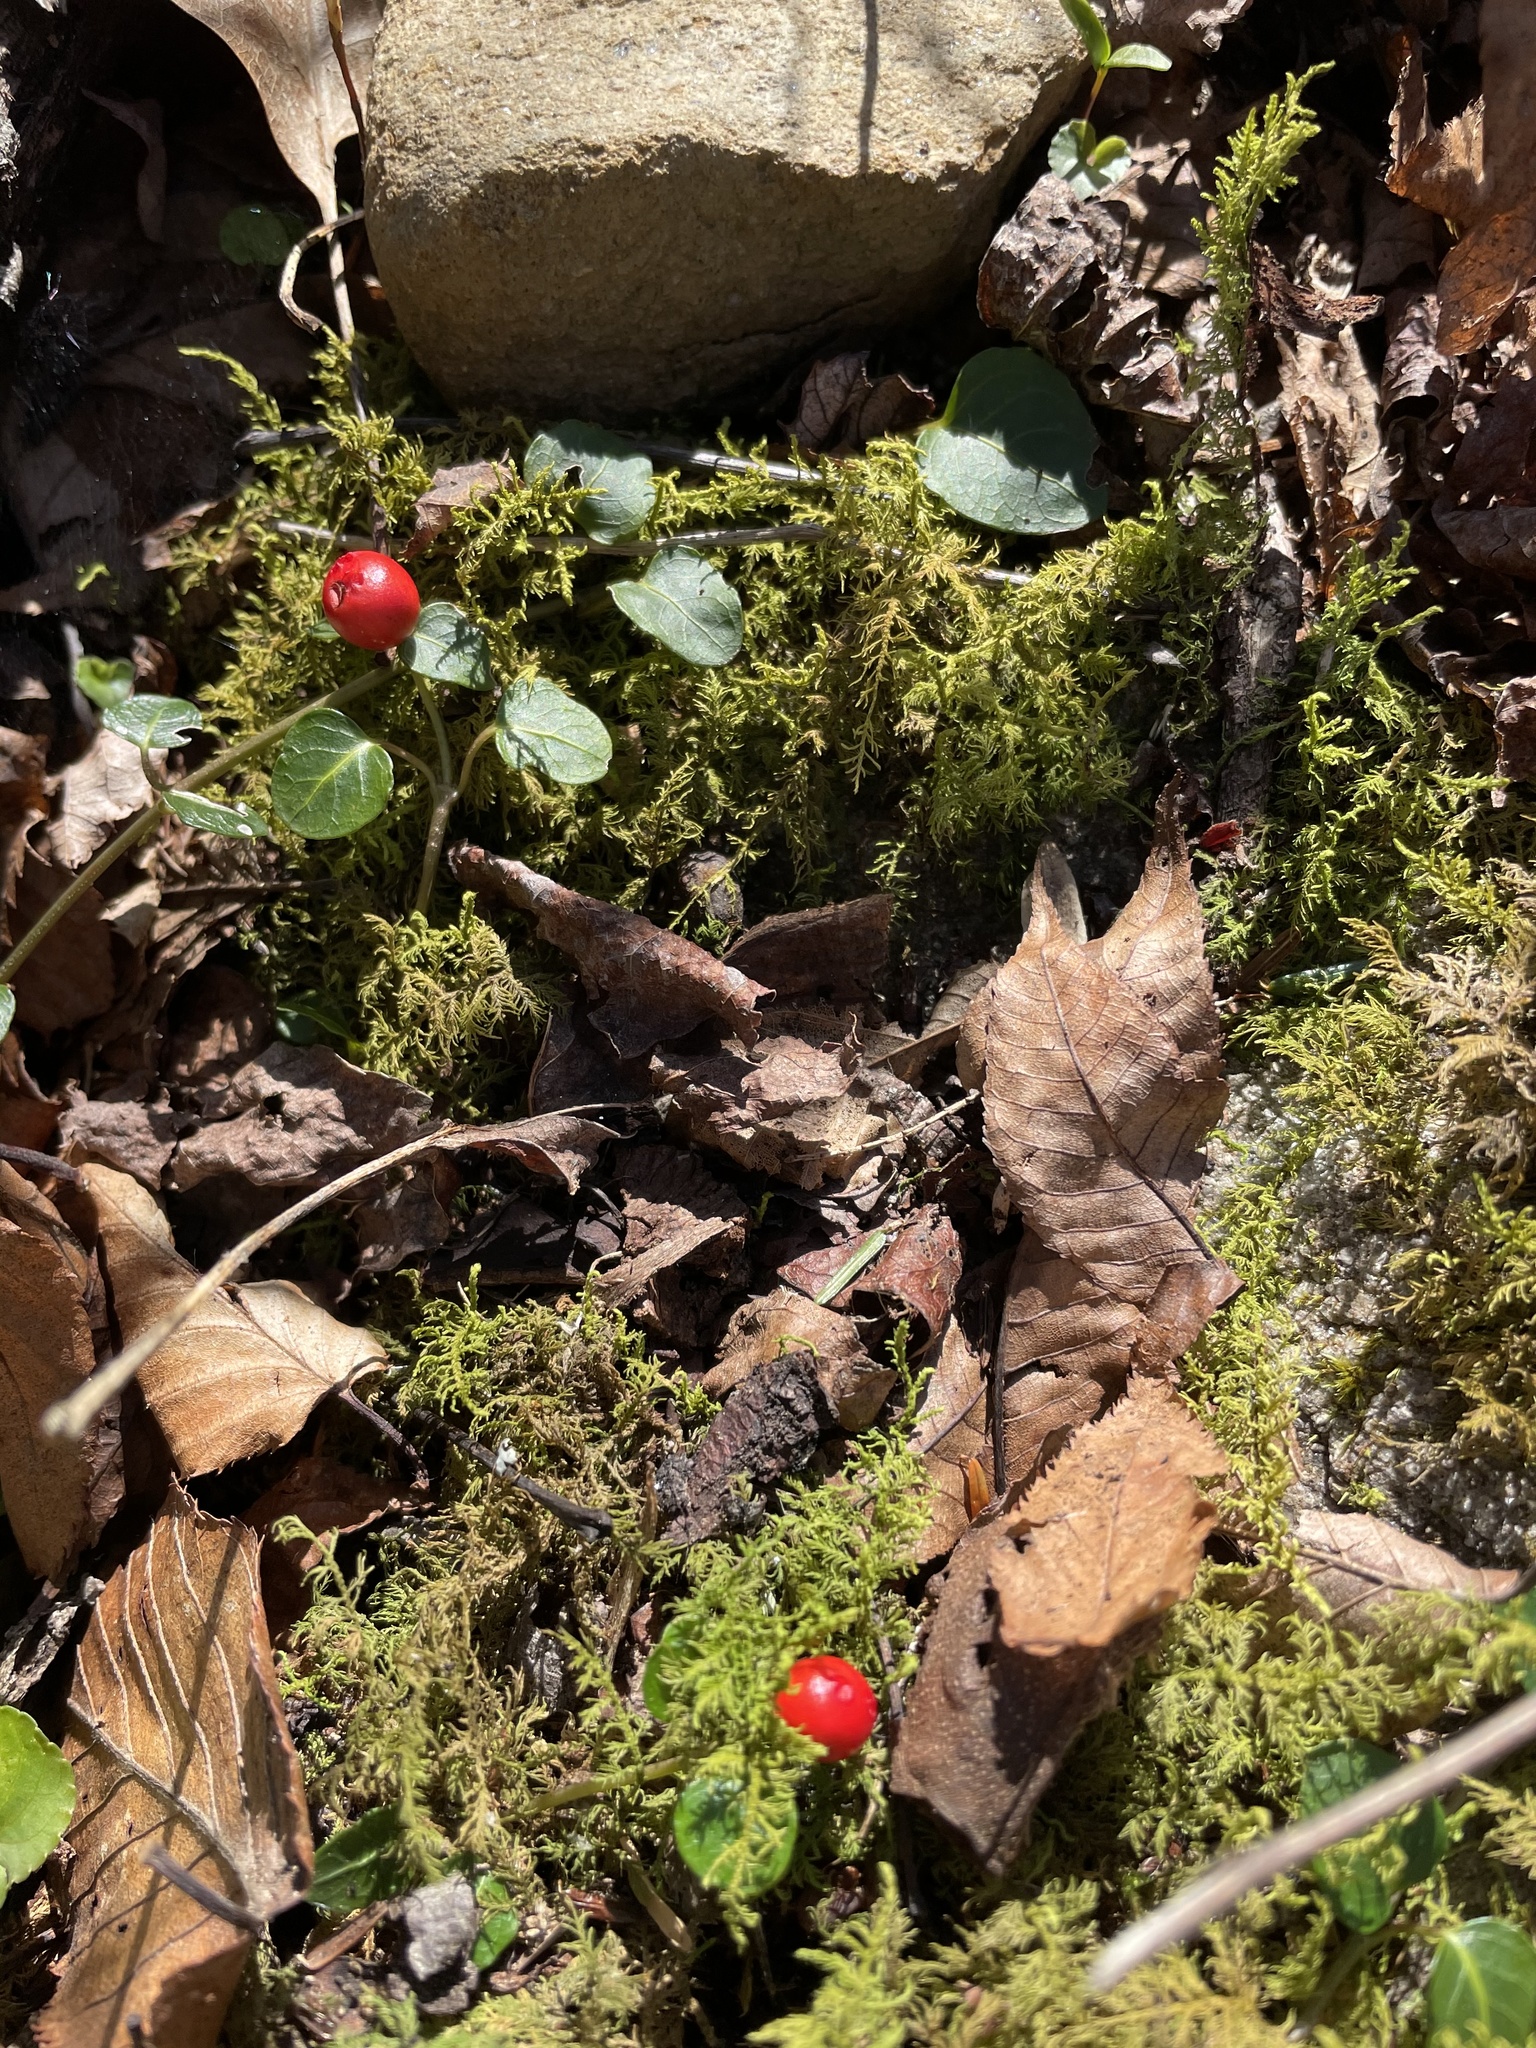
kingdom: Plantae
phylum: Tracheophyta
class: Magnoliopsida
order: Gentianales
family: Rubiaceae
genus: Mitchella
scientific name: Mitchella repens
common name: Partridge-berry
